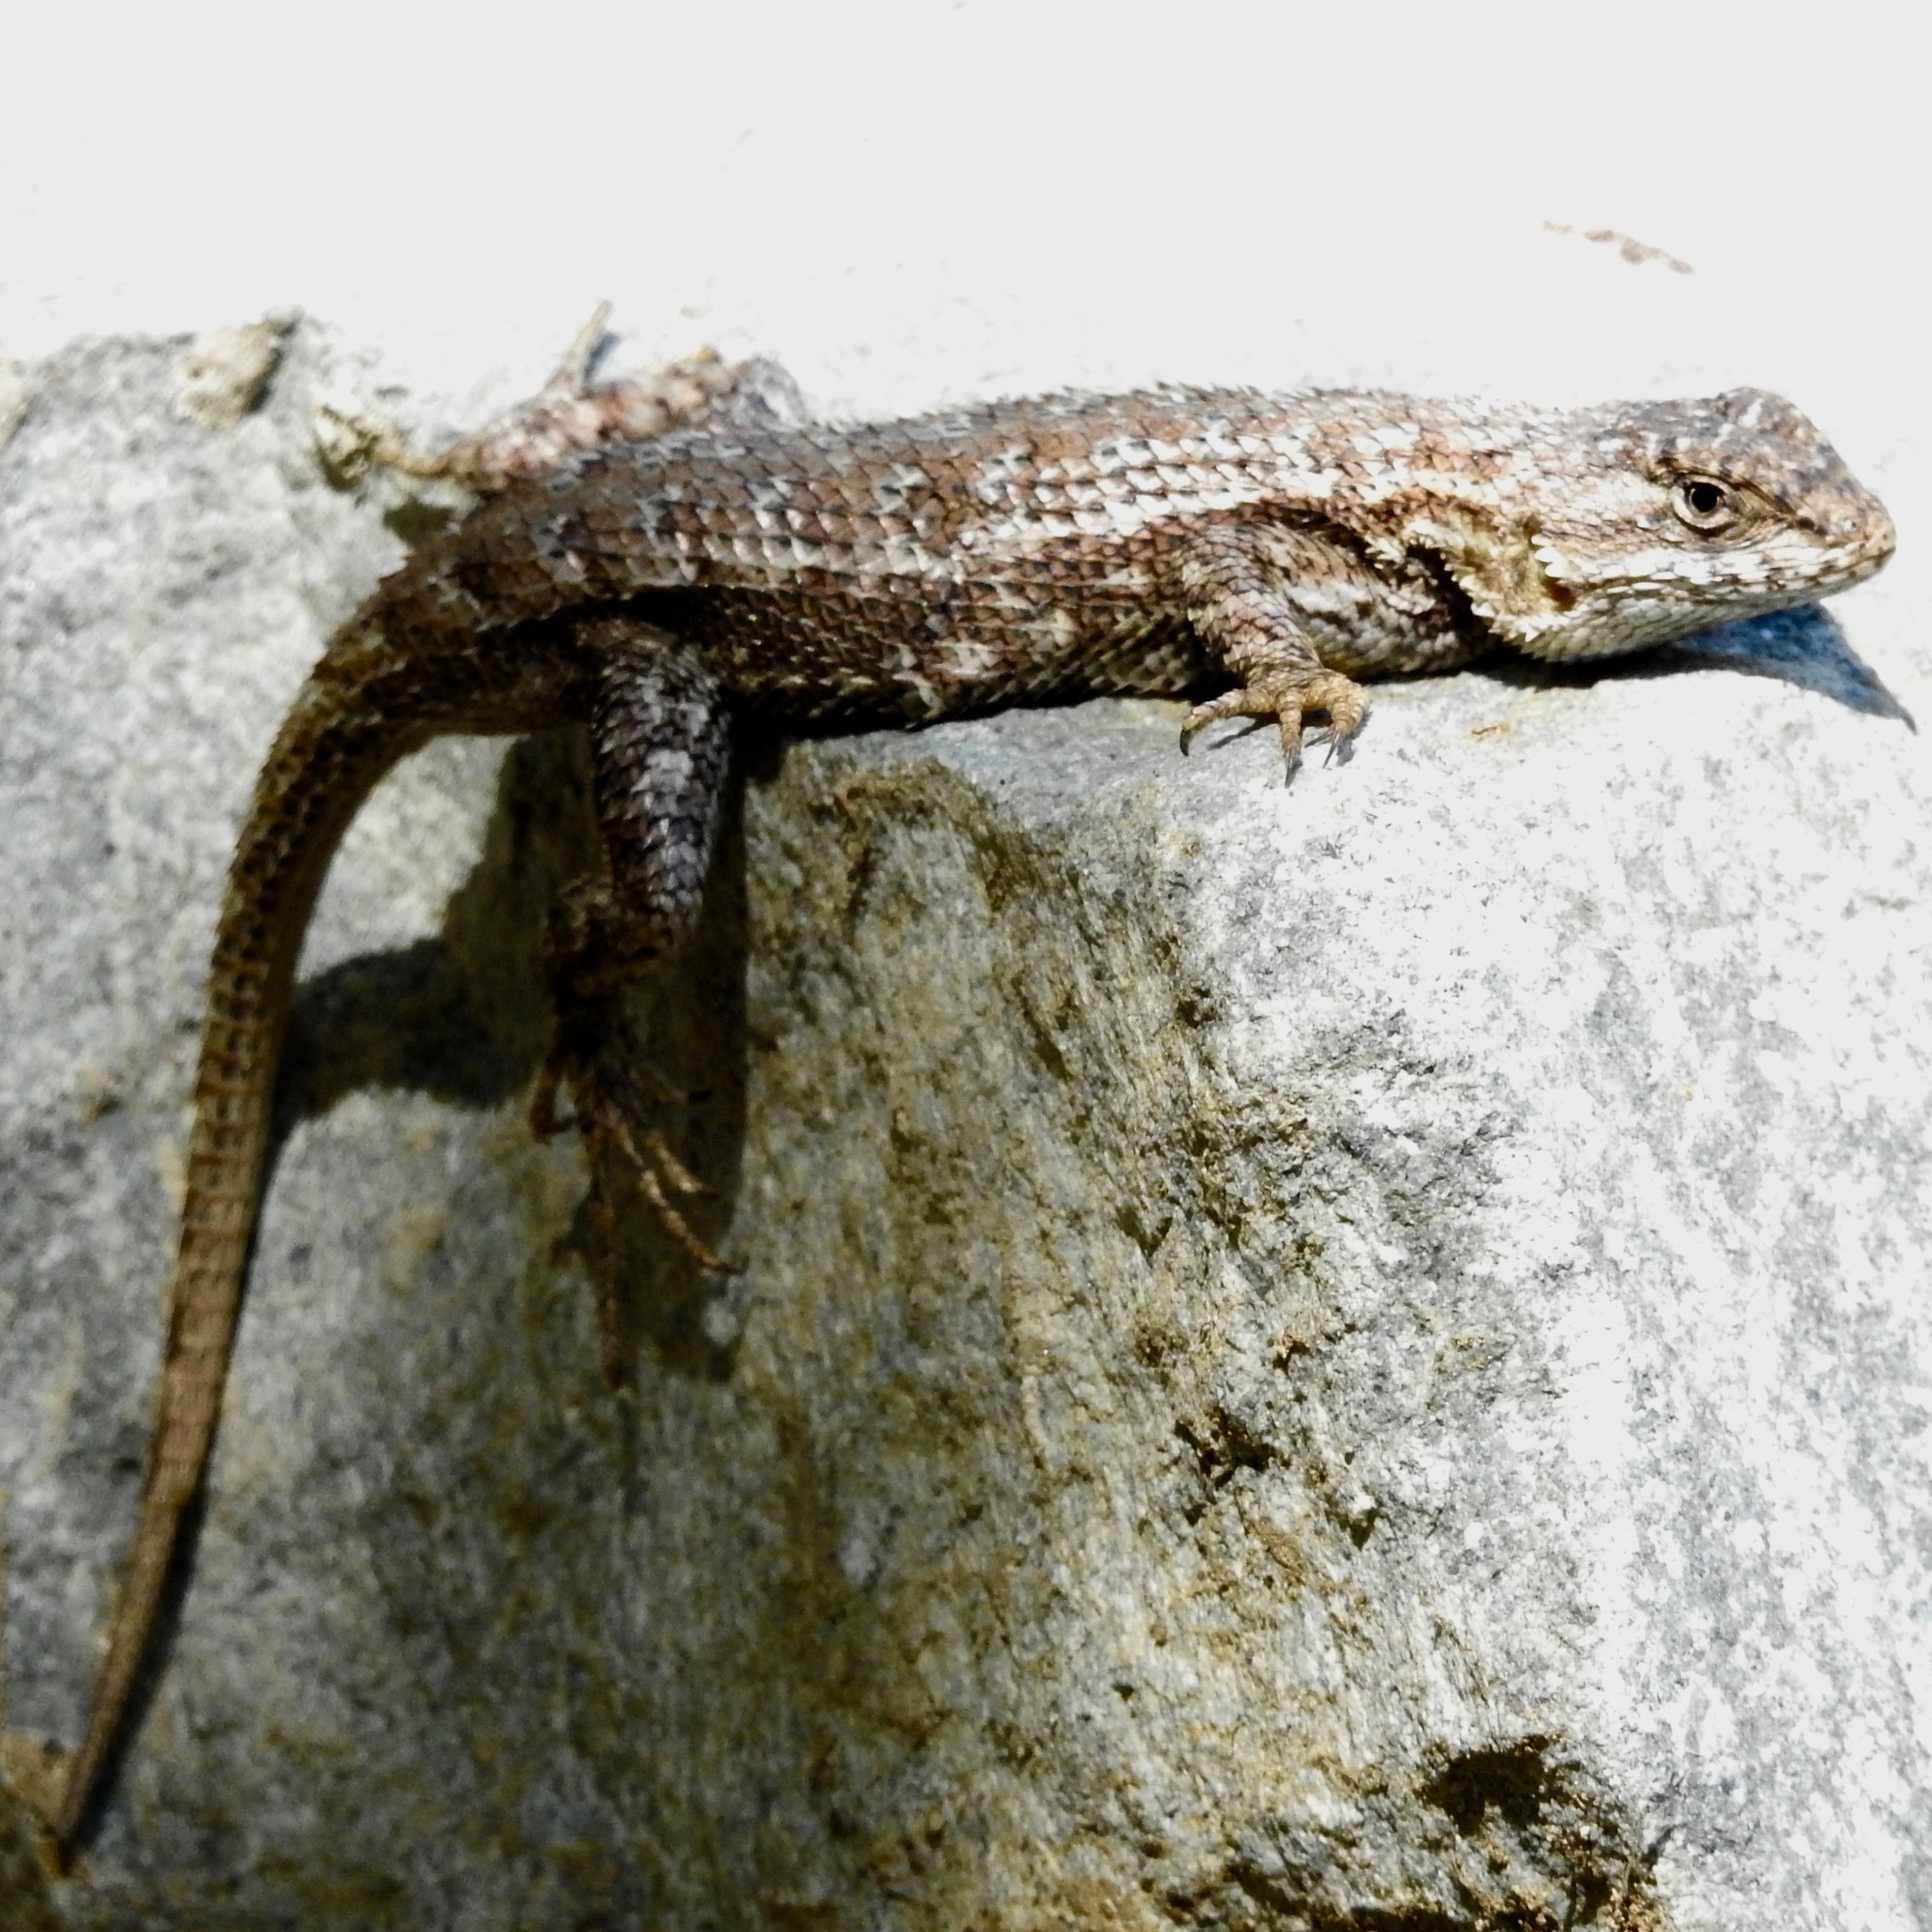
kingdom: Animalia
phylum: Chordata
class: Squamata
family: Phrynosomatidae
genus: Sceloporus
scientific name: Sceloporus occidentalis
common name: Western fence lizard
